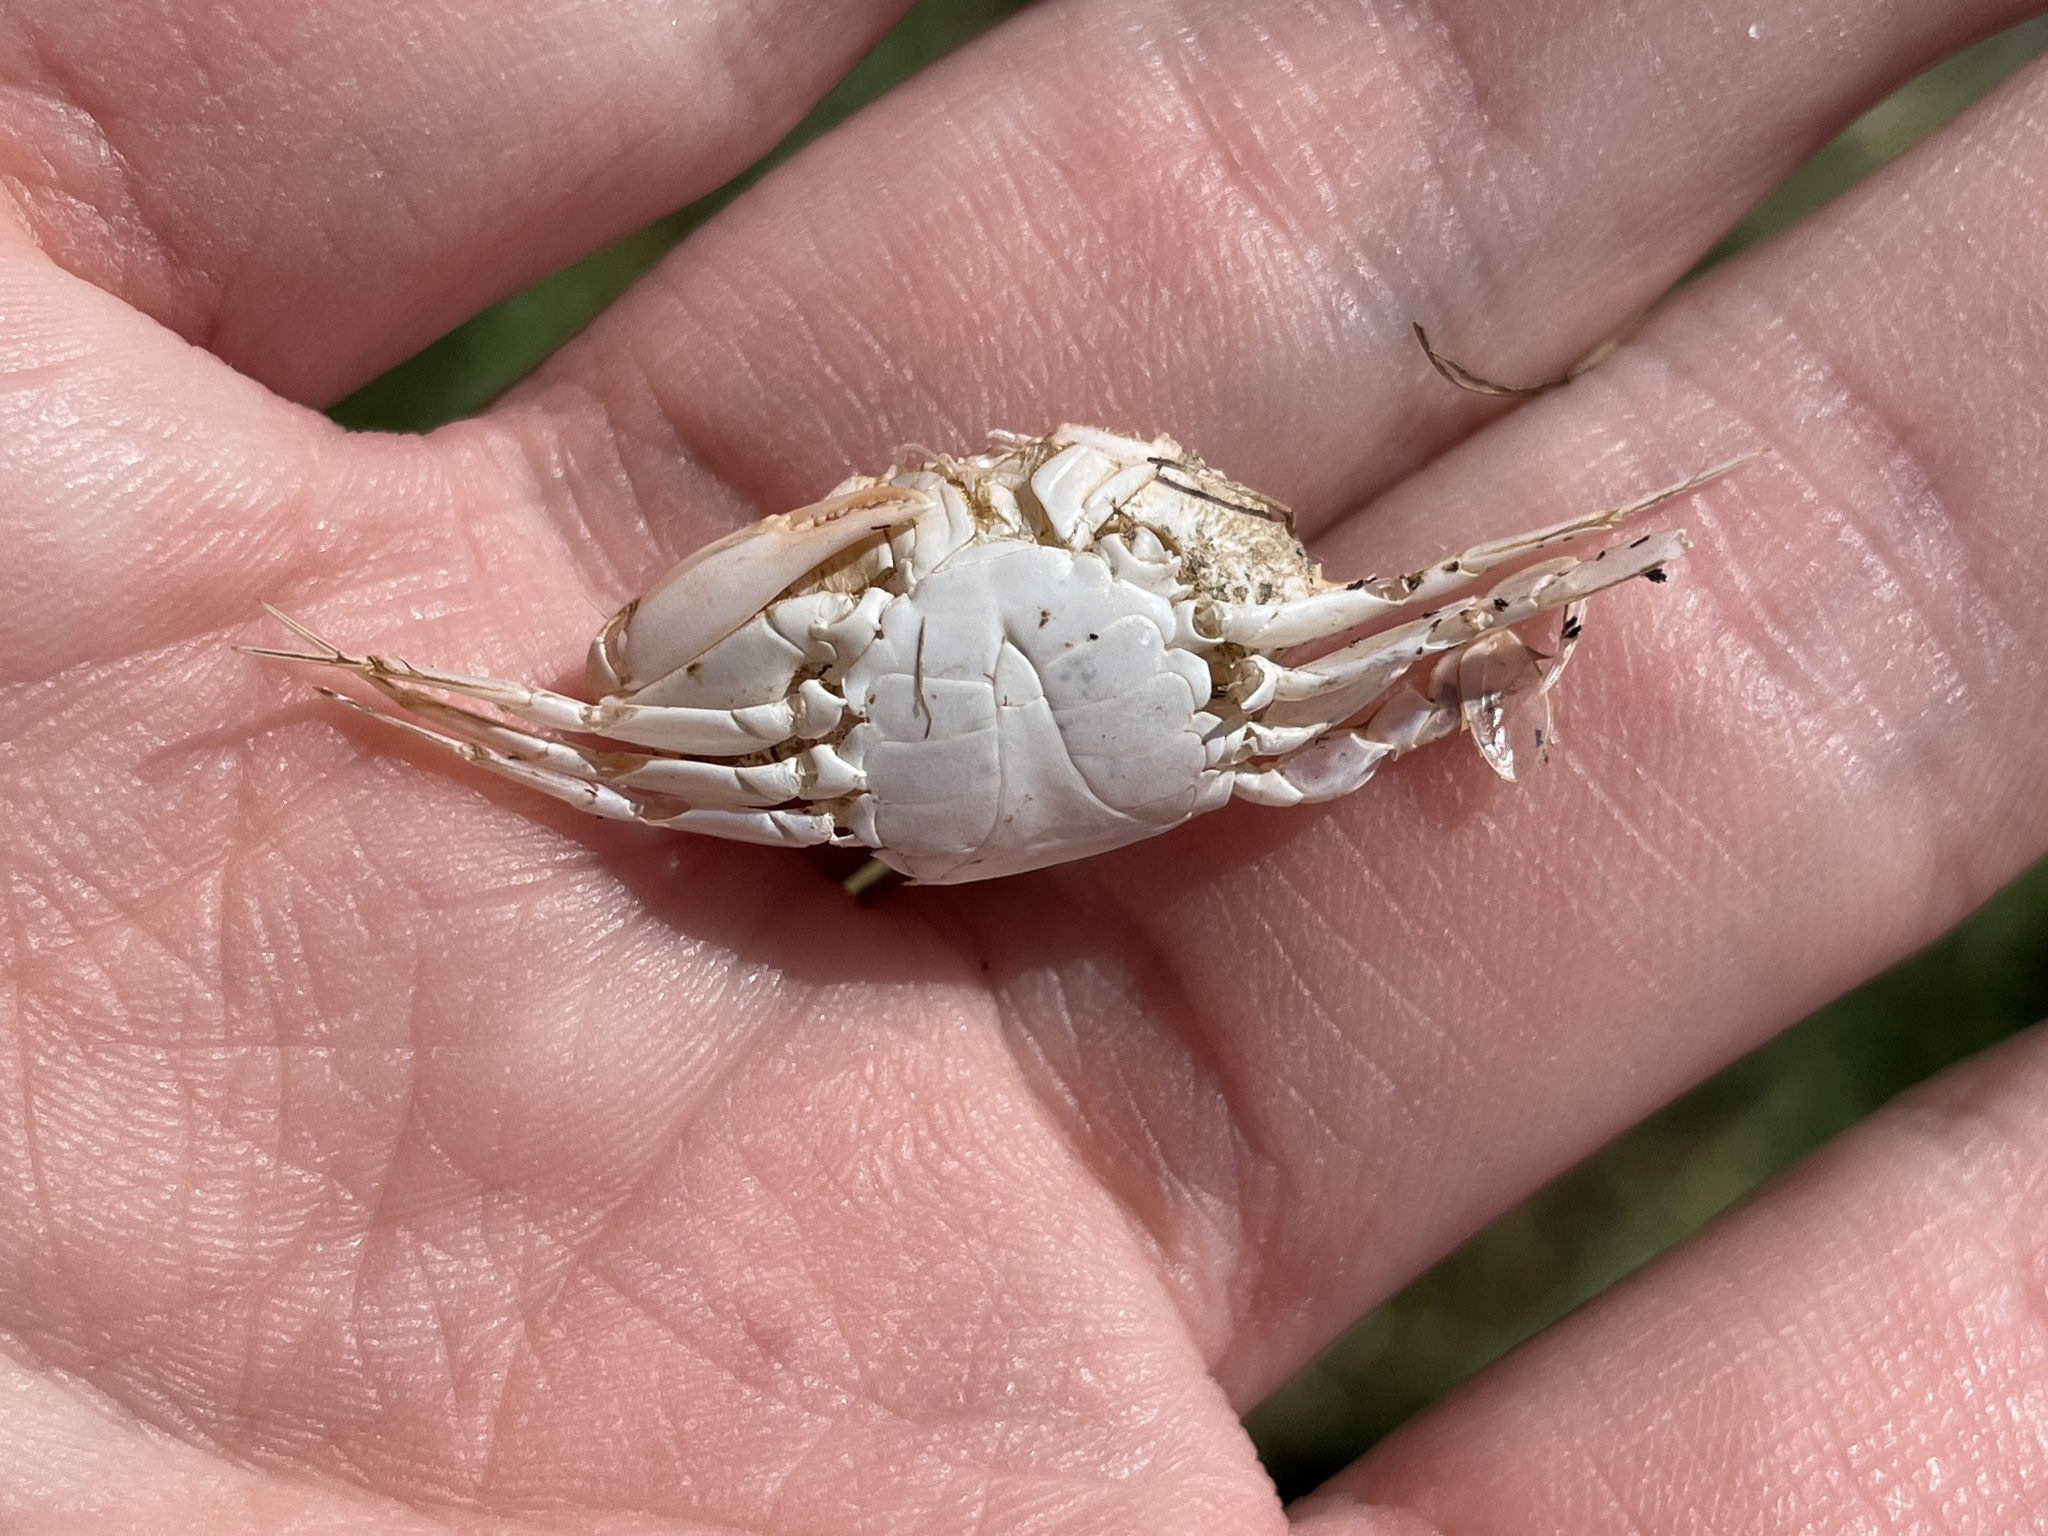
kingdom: Animalia
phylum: Arthropoda
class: Malacostraca
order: Decapoda
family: Portunidae
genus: Callinectes
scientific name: Callinectes sapidus
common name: Blue crab
